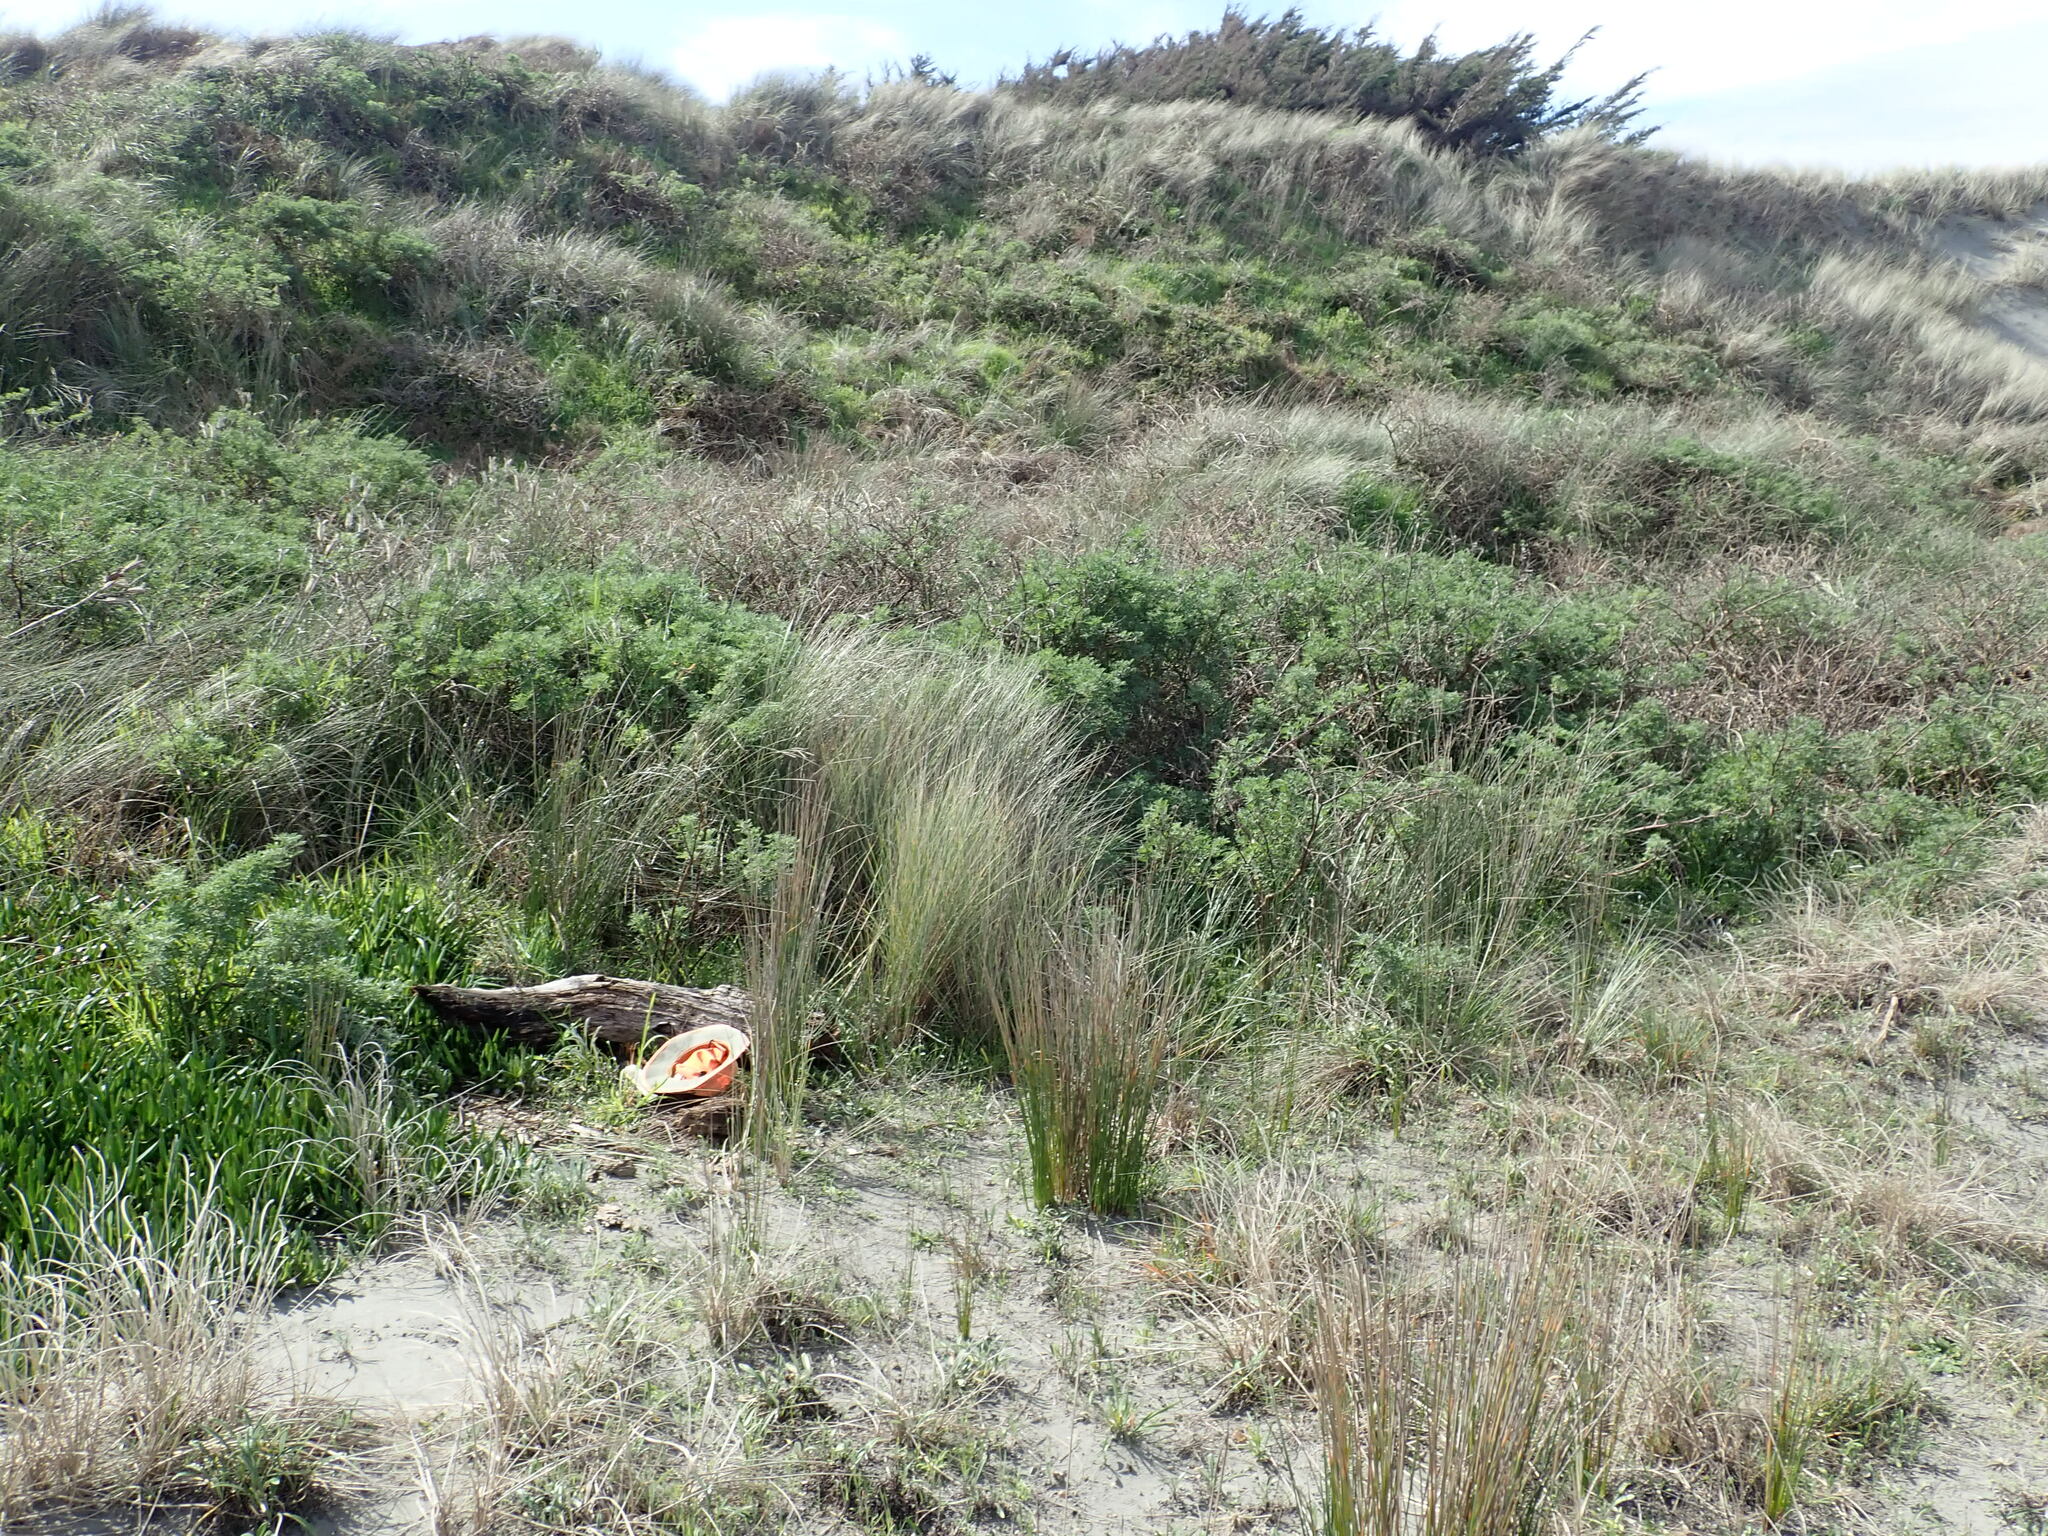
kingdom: Animalia
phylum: Arthropoda
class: Insecta
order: Blattodea
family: Blattidae
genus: Maoriblatta
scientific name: Maoriblatta novaeseelandiae
